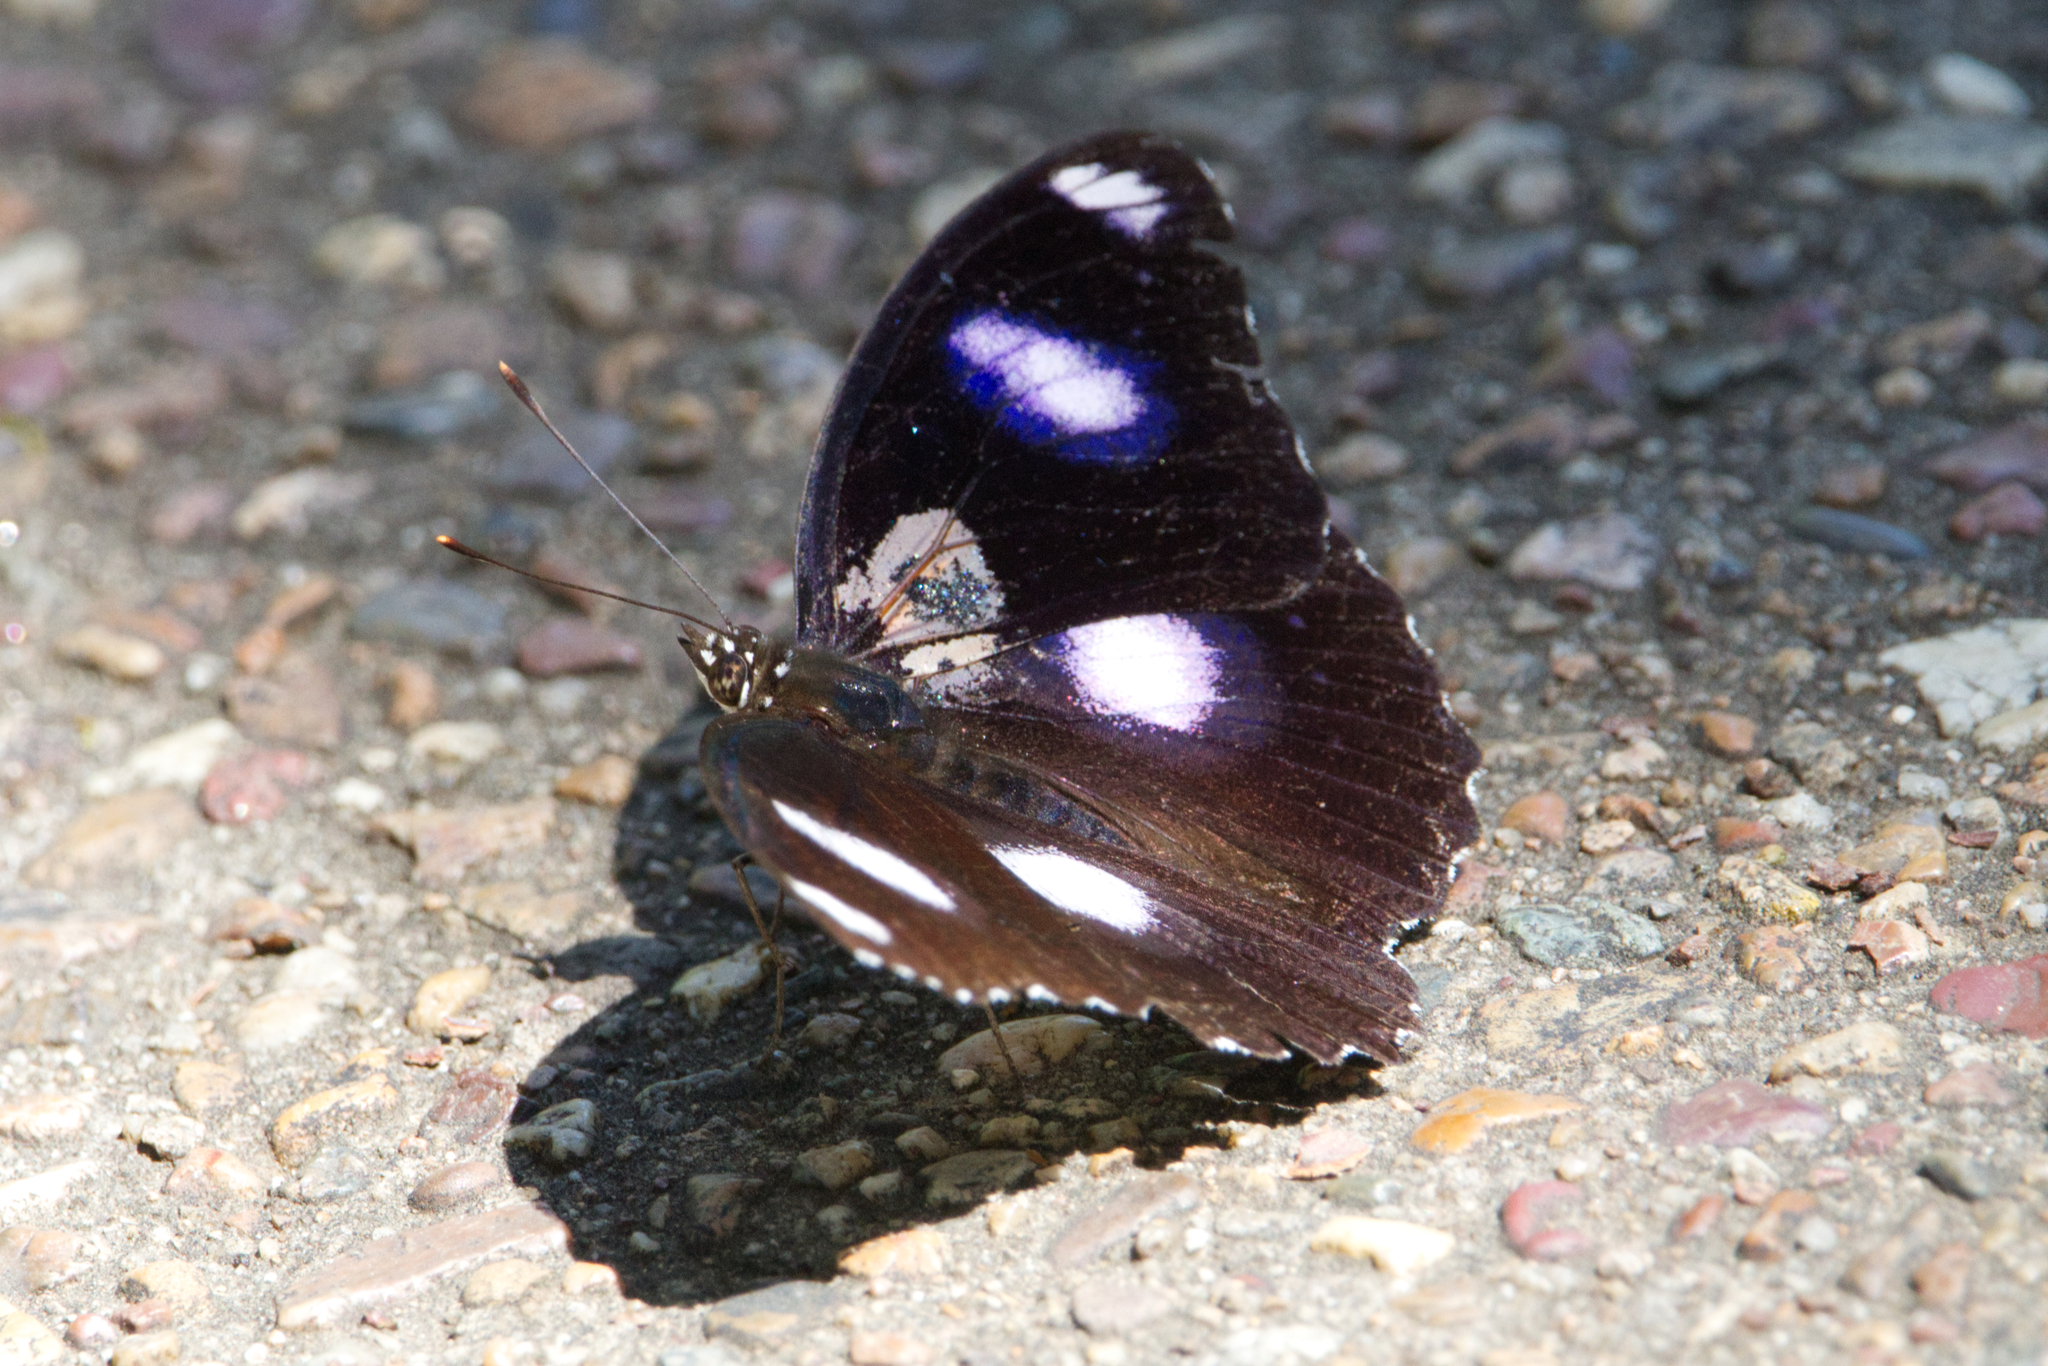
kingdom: Animalia
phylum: Arthropoda
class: Insecta
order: Lepidoptera
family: Nymphalidae
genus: Hypolimnas
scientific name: Hypolimnas bolina
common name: Great eggfly
